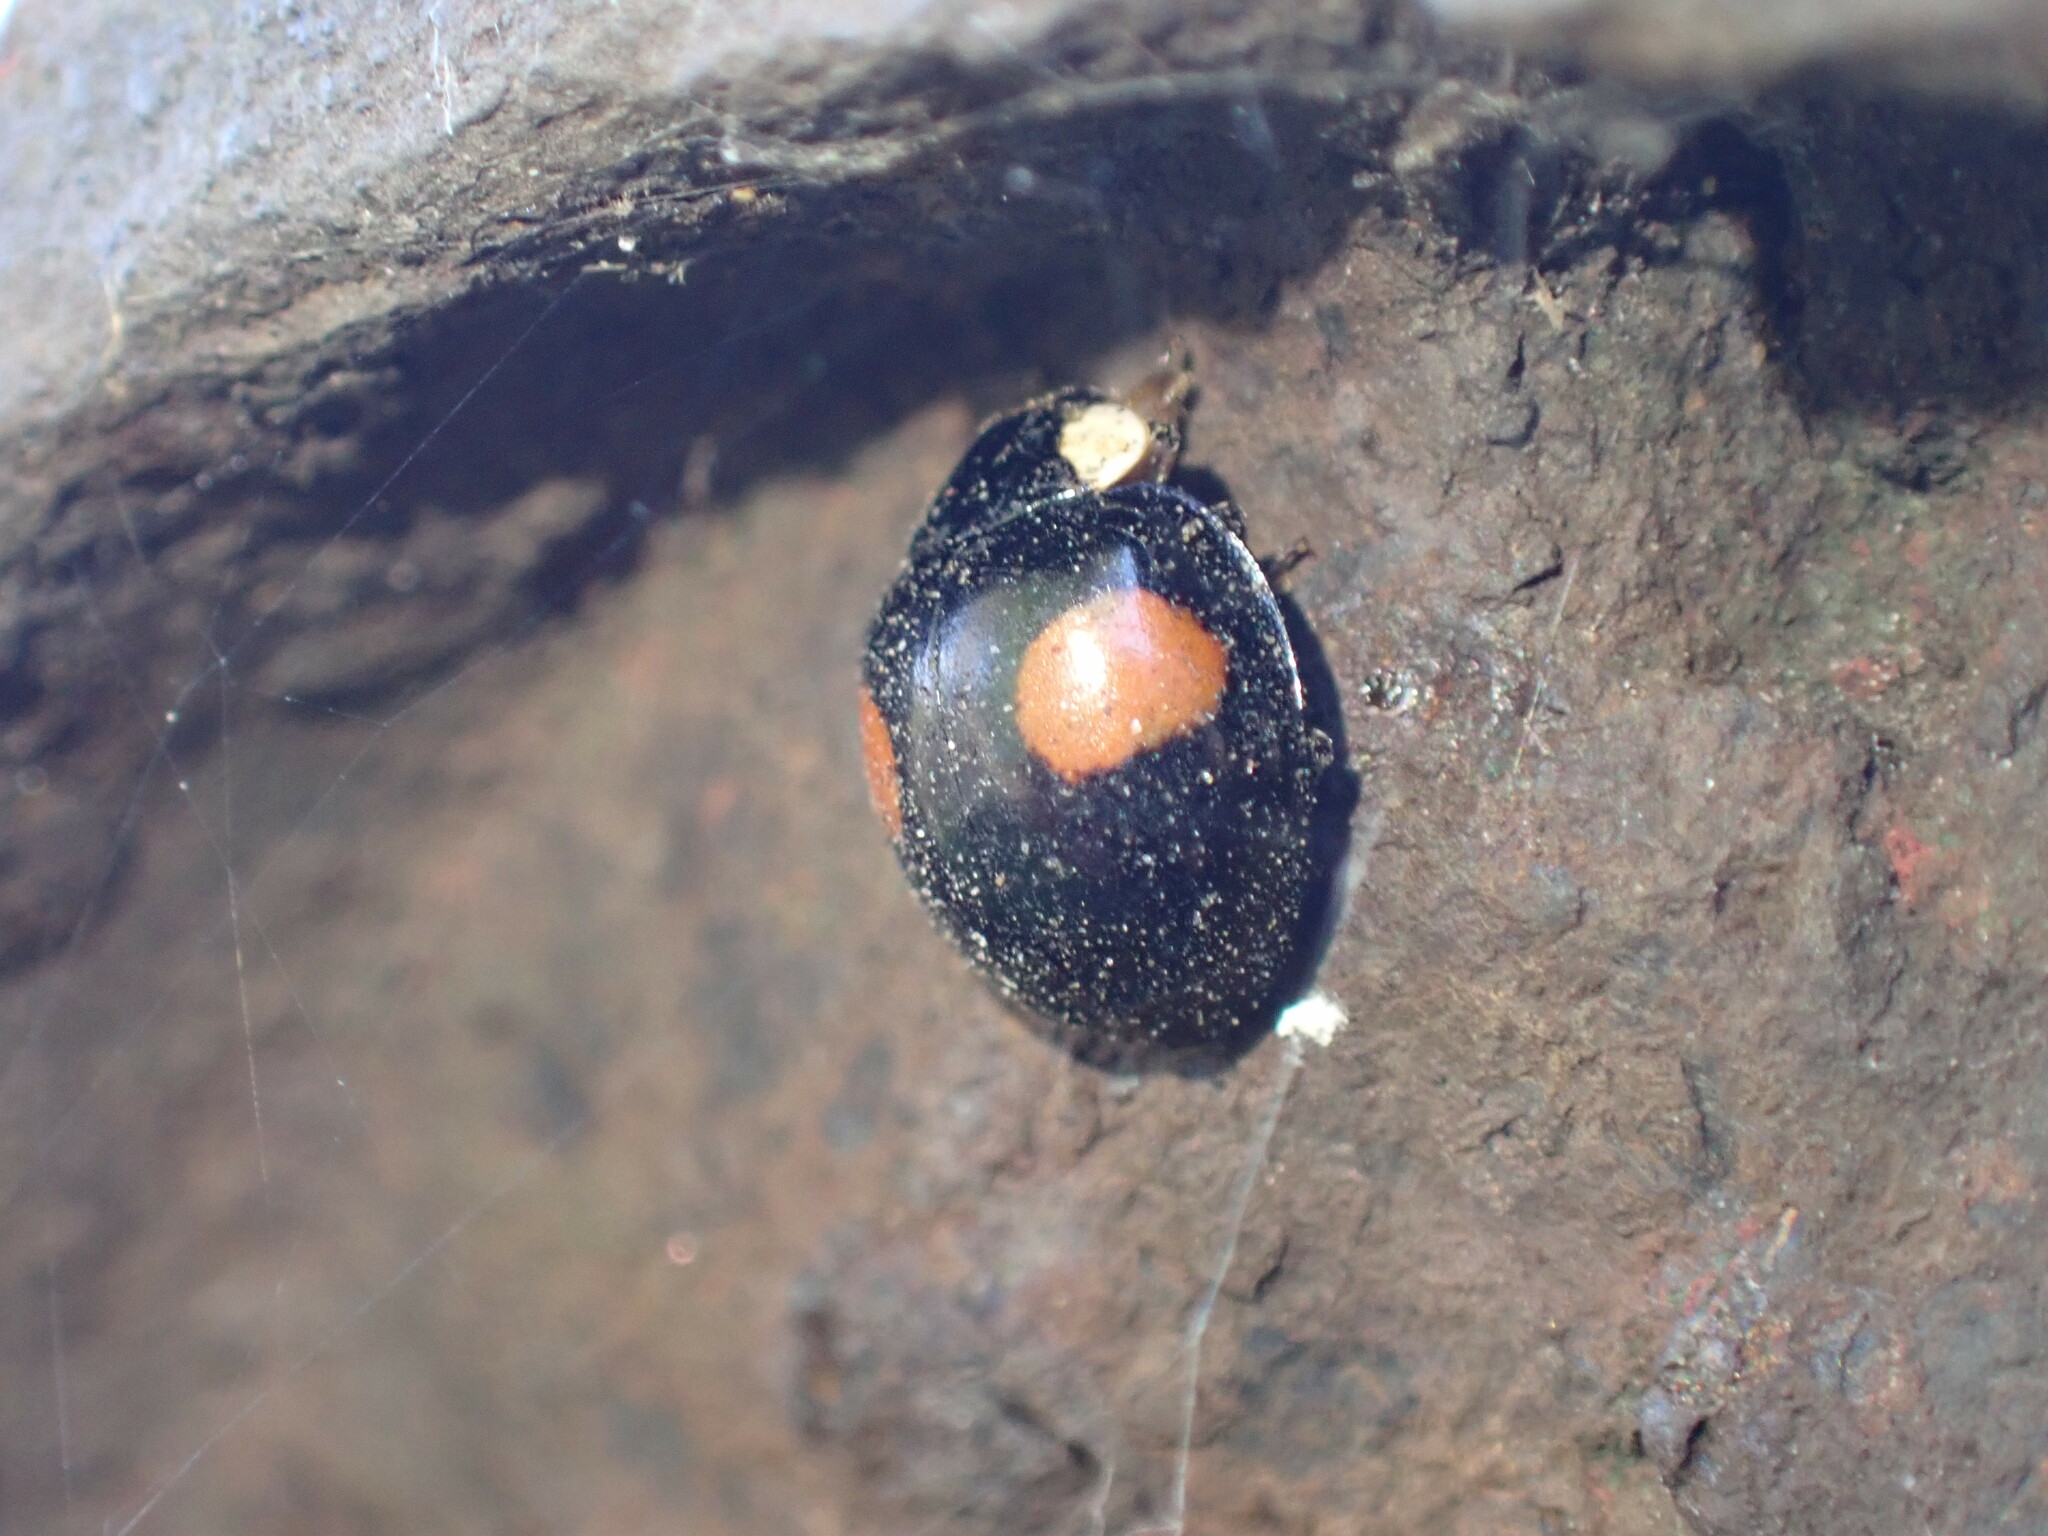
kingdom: Animalia
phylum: Arthropoda
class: Insecta
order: Coleoptera
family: Coccinellidae
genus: Harmonia
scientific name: Harmonia axyridis
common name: Harlequin ladybird
